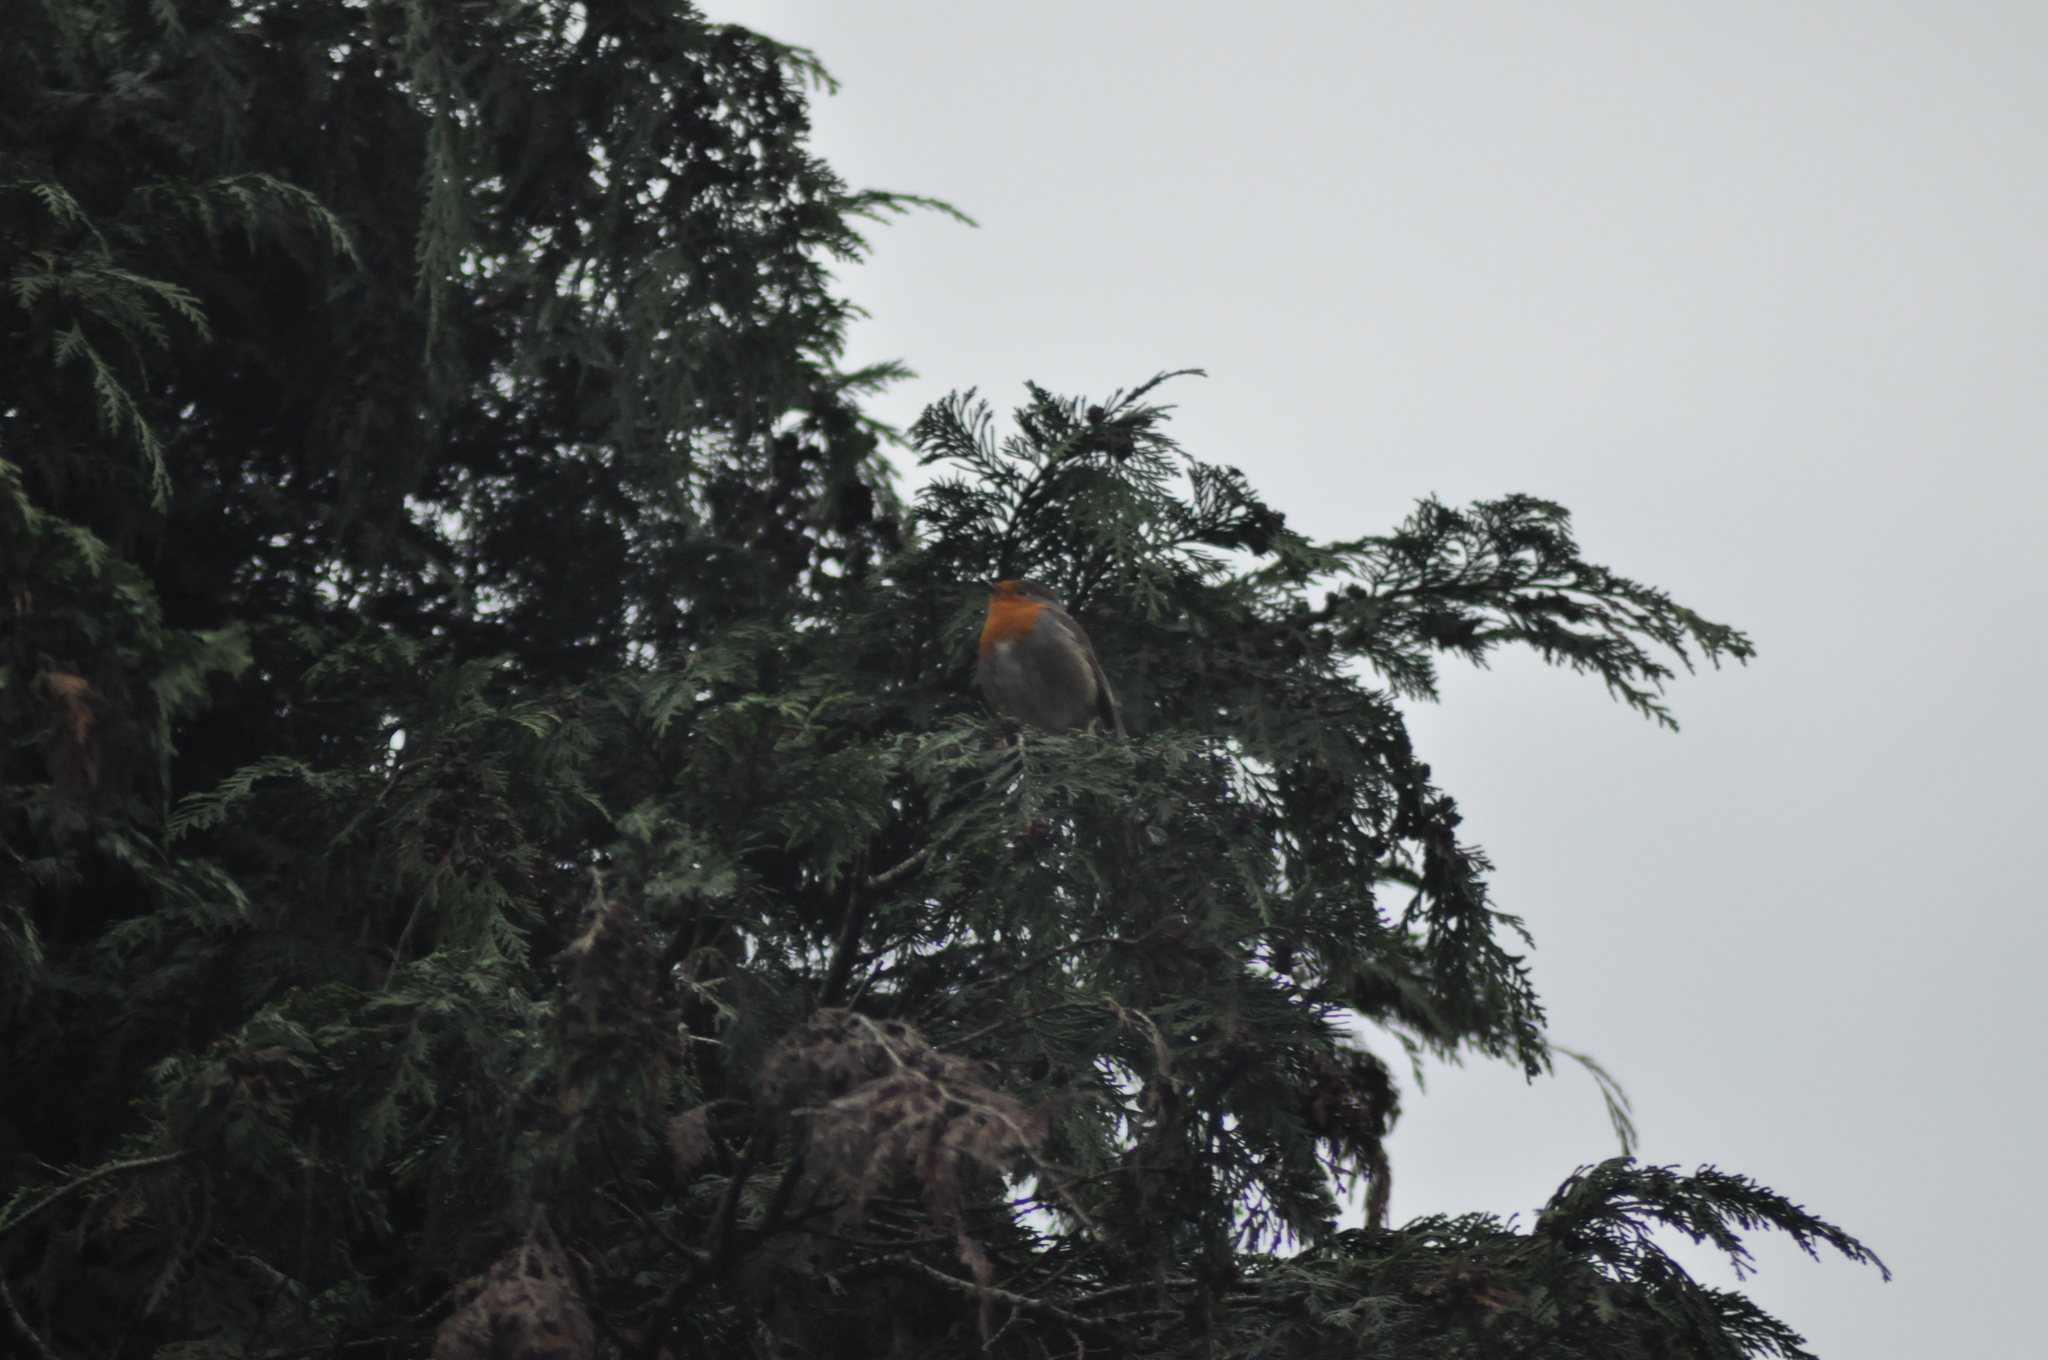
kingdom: Animalia
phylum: Chordata
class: Aves
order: Passeriformes
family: Muscicapidae
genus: Erithacus
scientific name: Erithacus rubecula
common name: European robin
